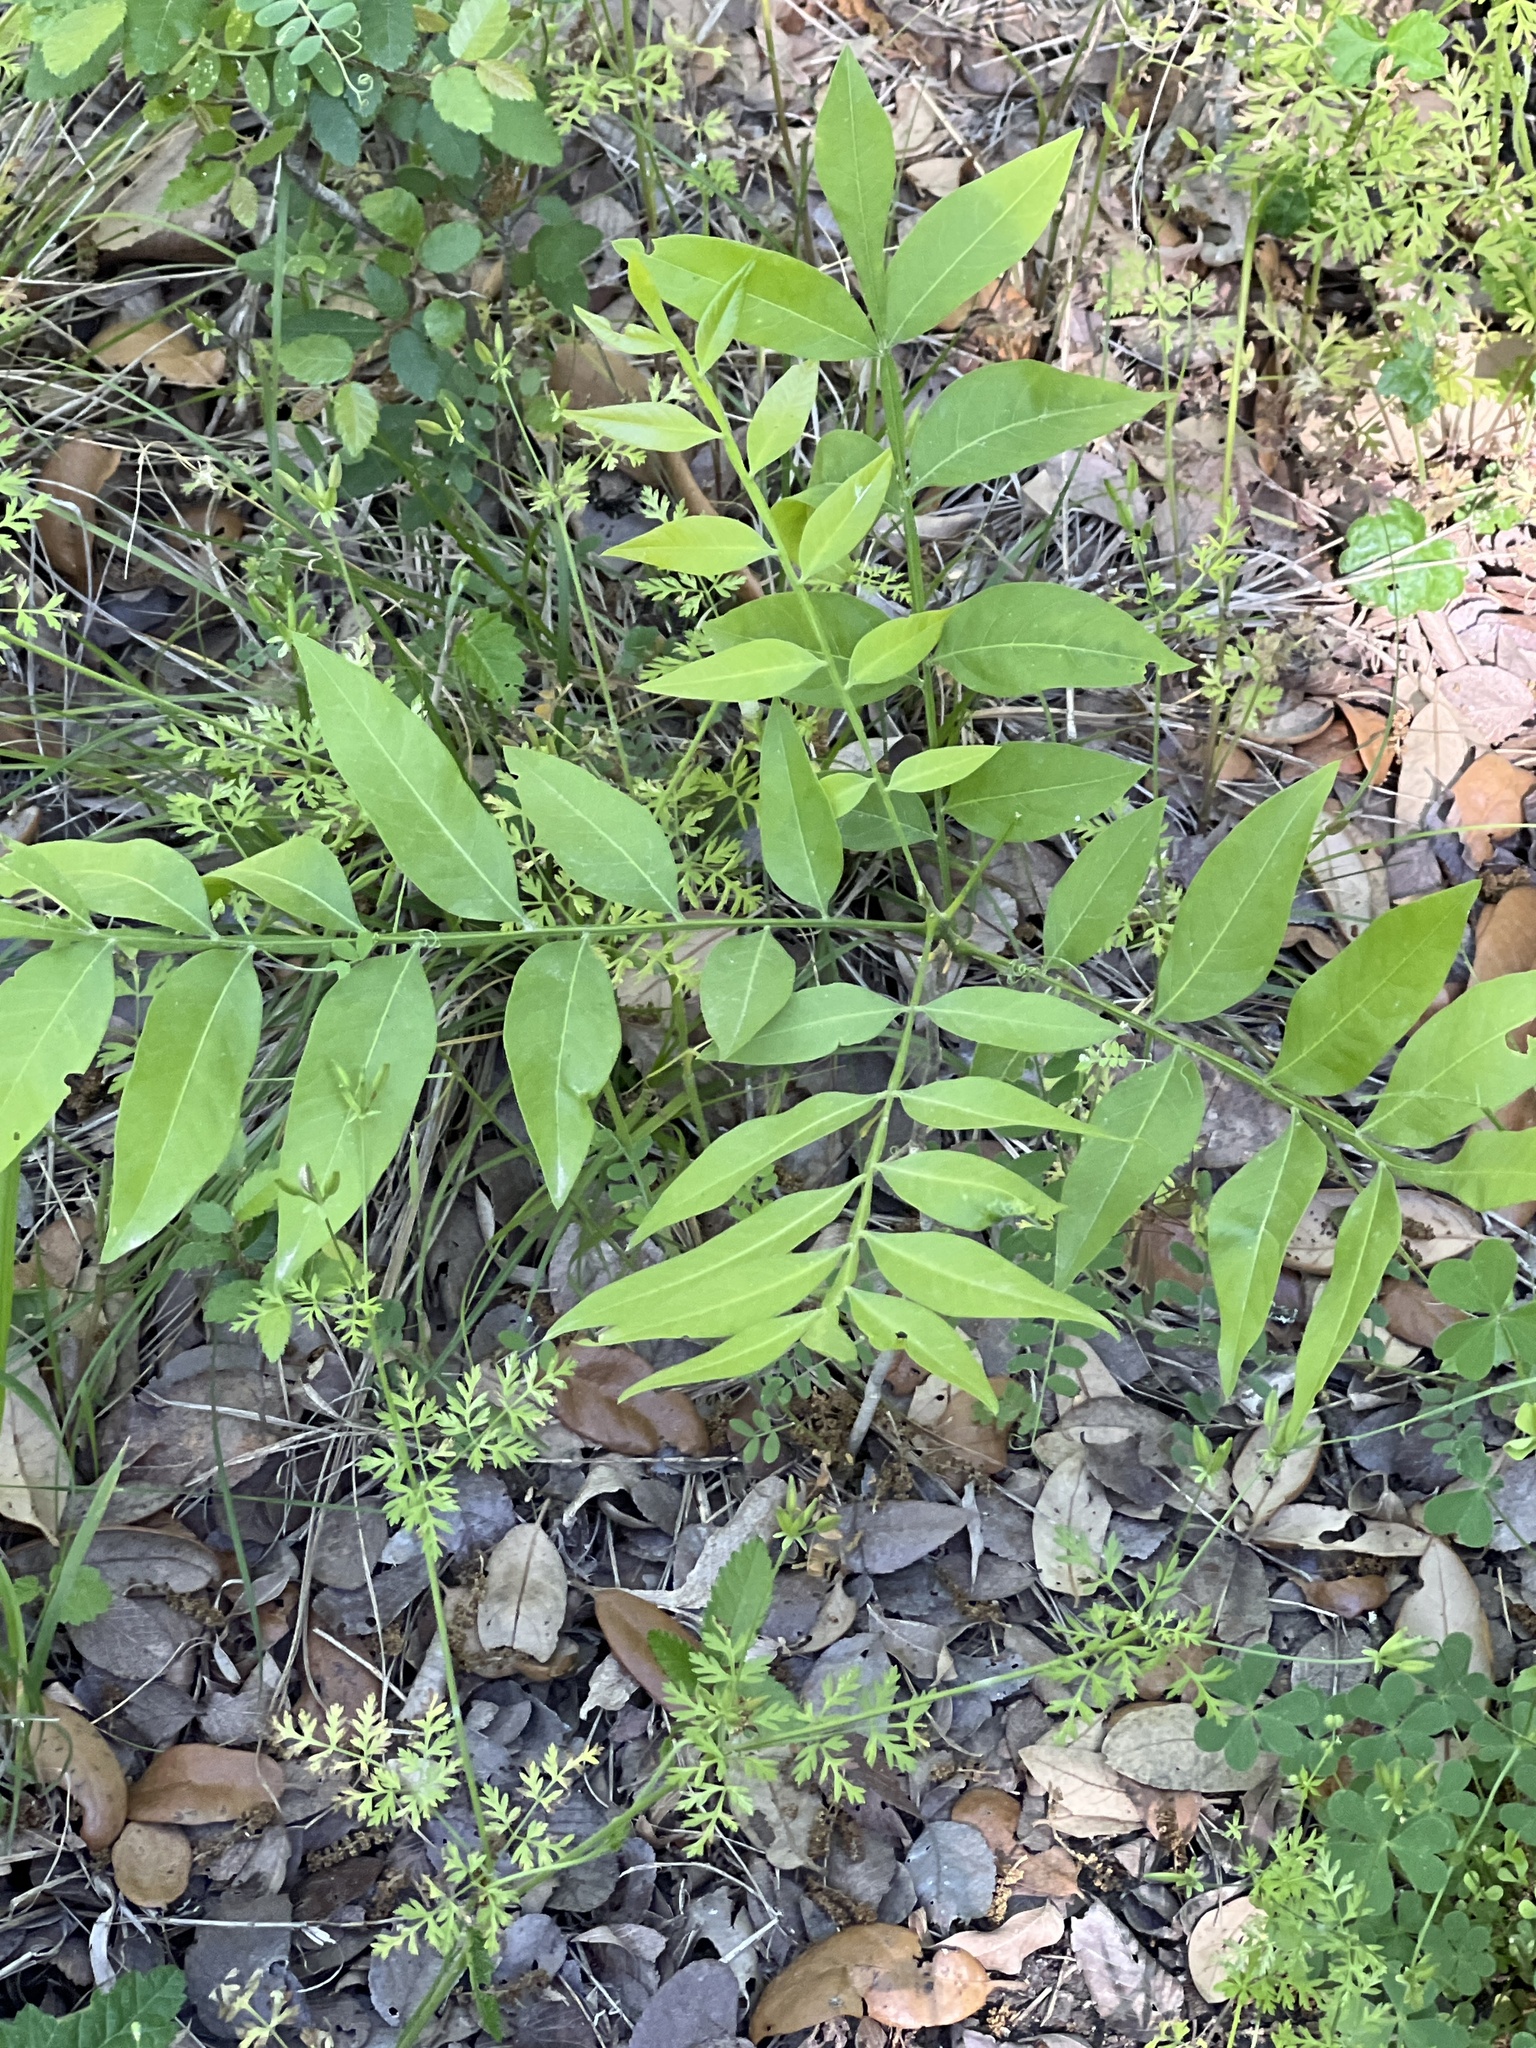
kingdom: Plantae
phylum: Tracheophyta
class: Magnoliopsida
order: Sapindales
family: Sapindaceae
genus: Sapindus
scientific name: Sapindus drummondii
